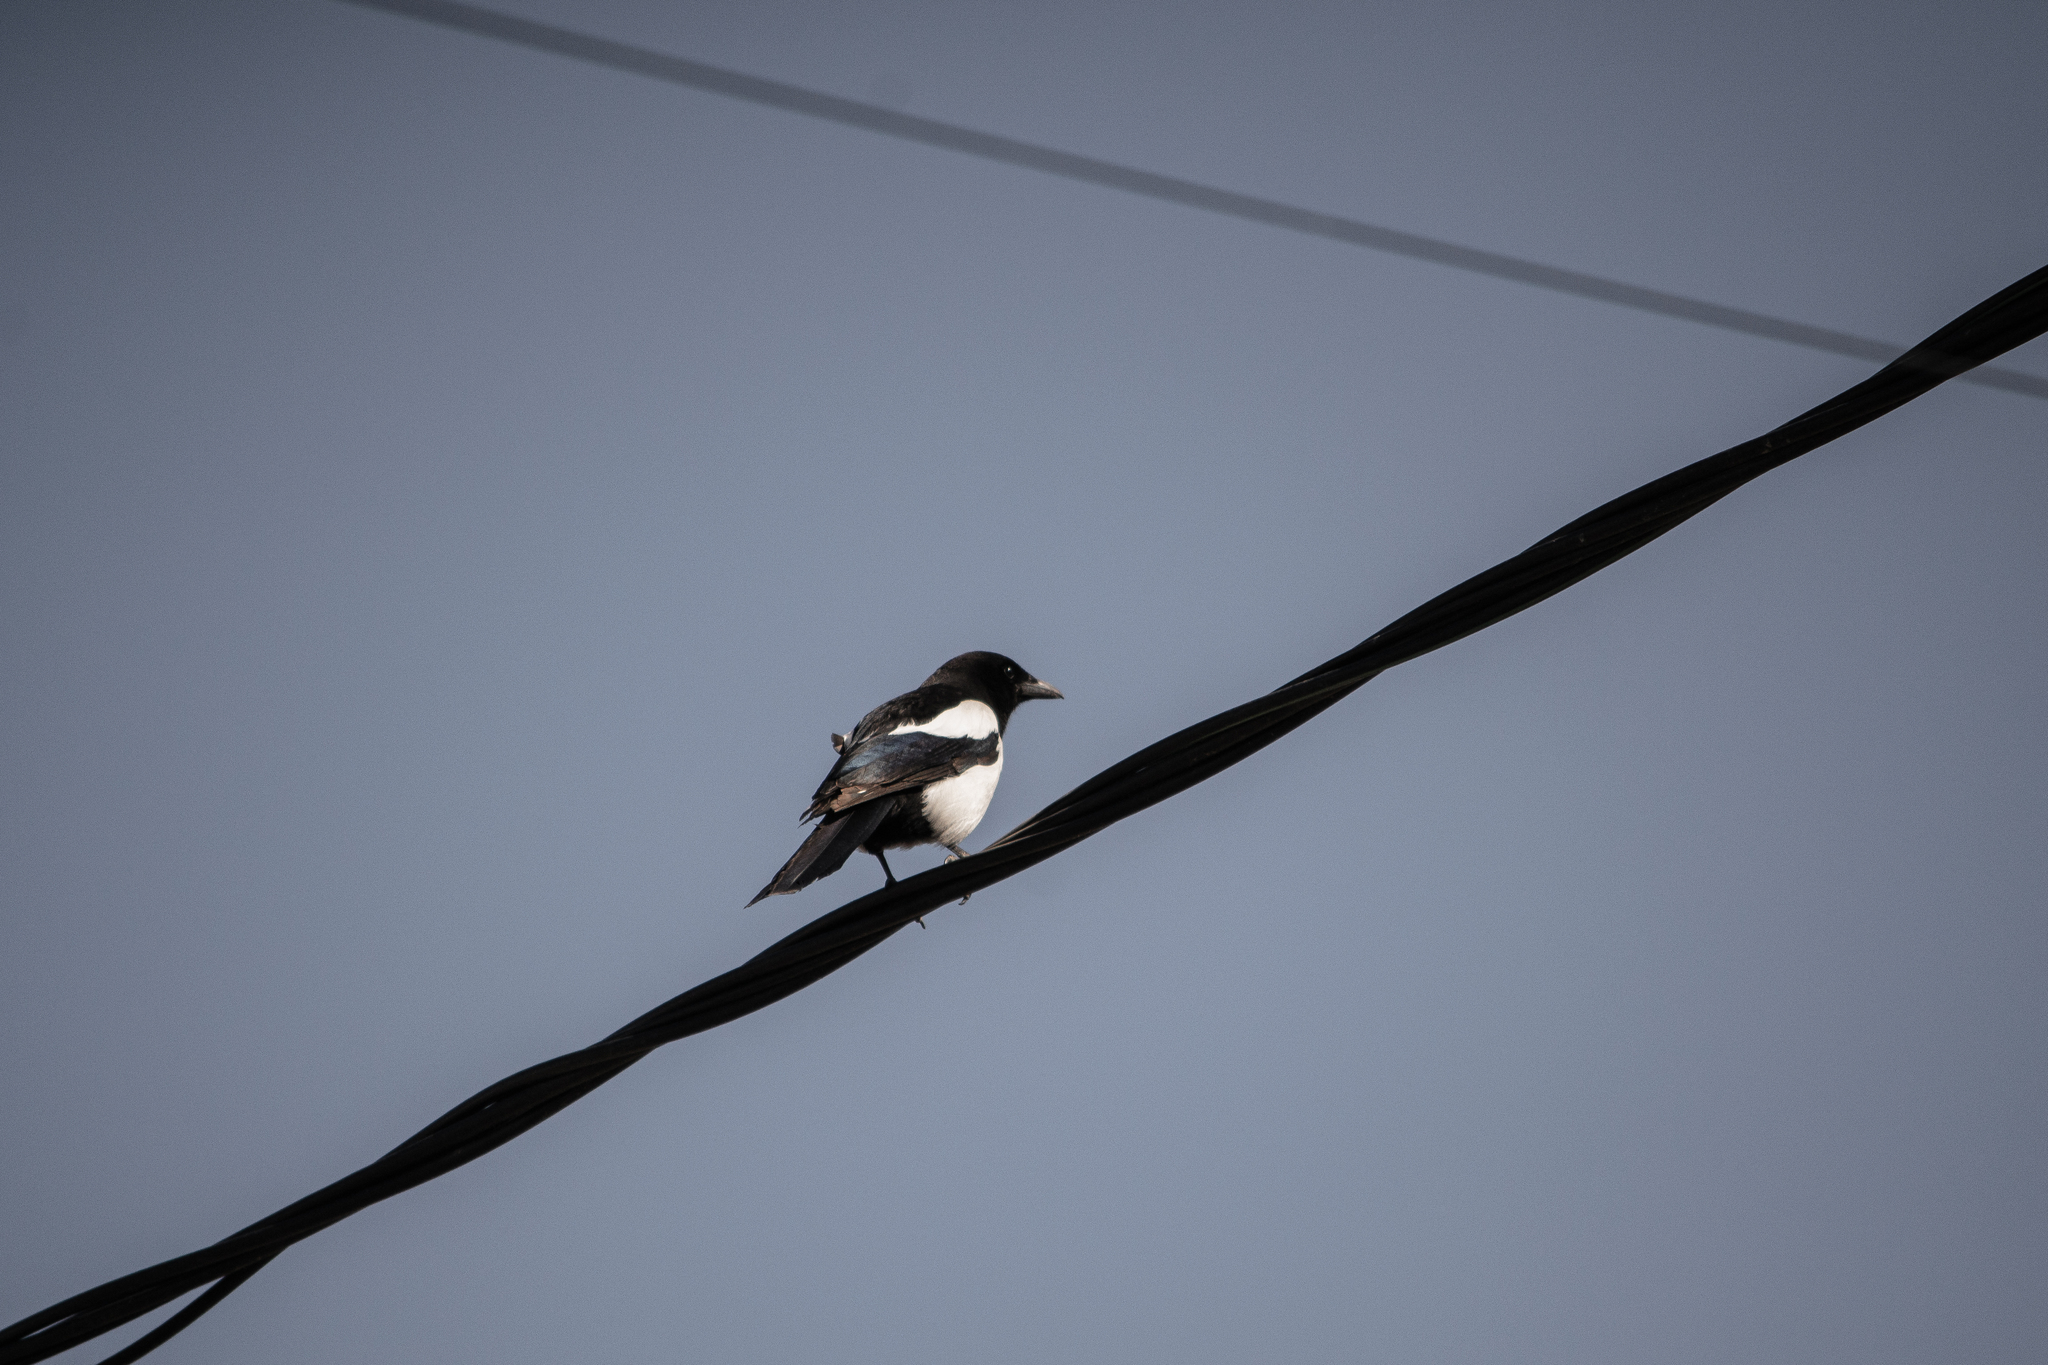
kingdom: Animalia
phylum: Chordata
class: Aves
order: Passeriformes
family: Corvidae
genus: Pica
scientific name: Pica pica
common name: Eurasian magpie
